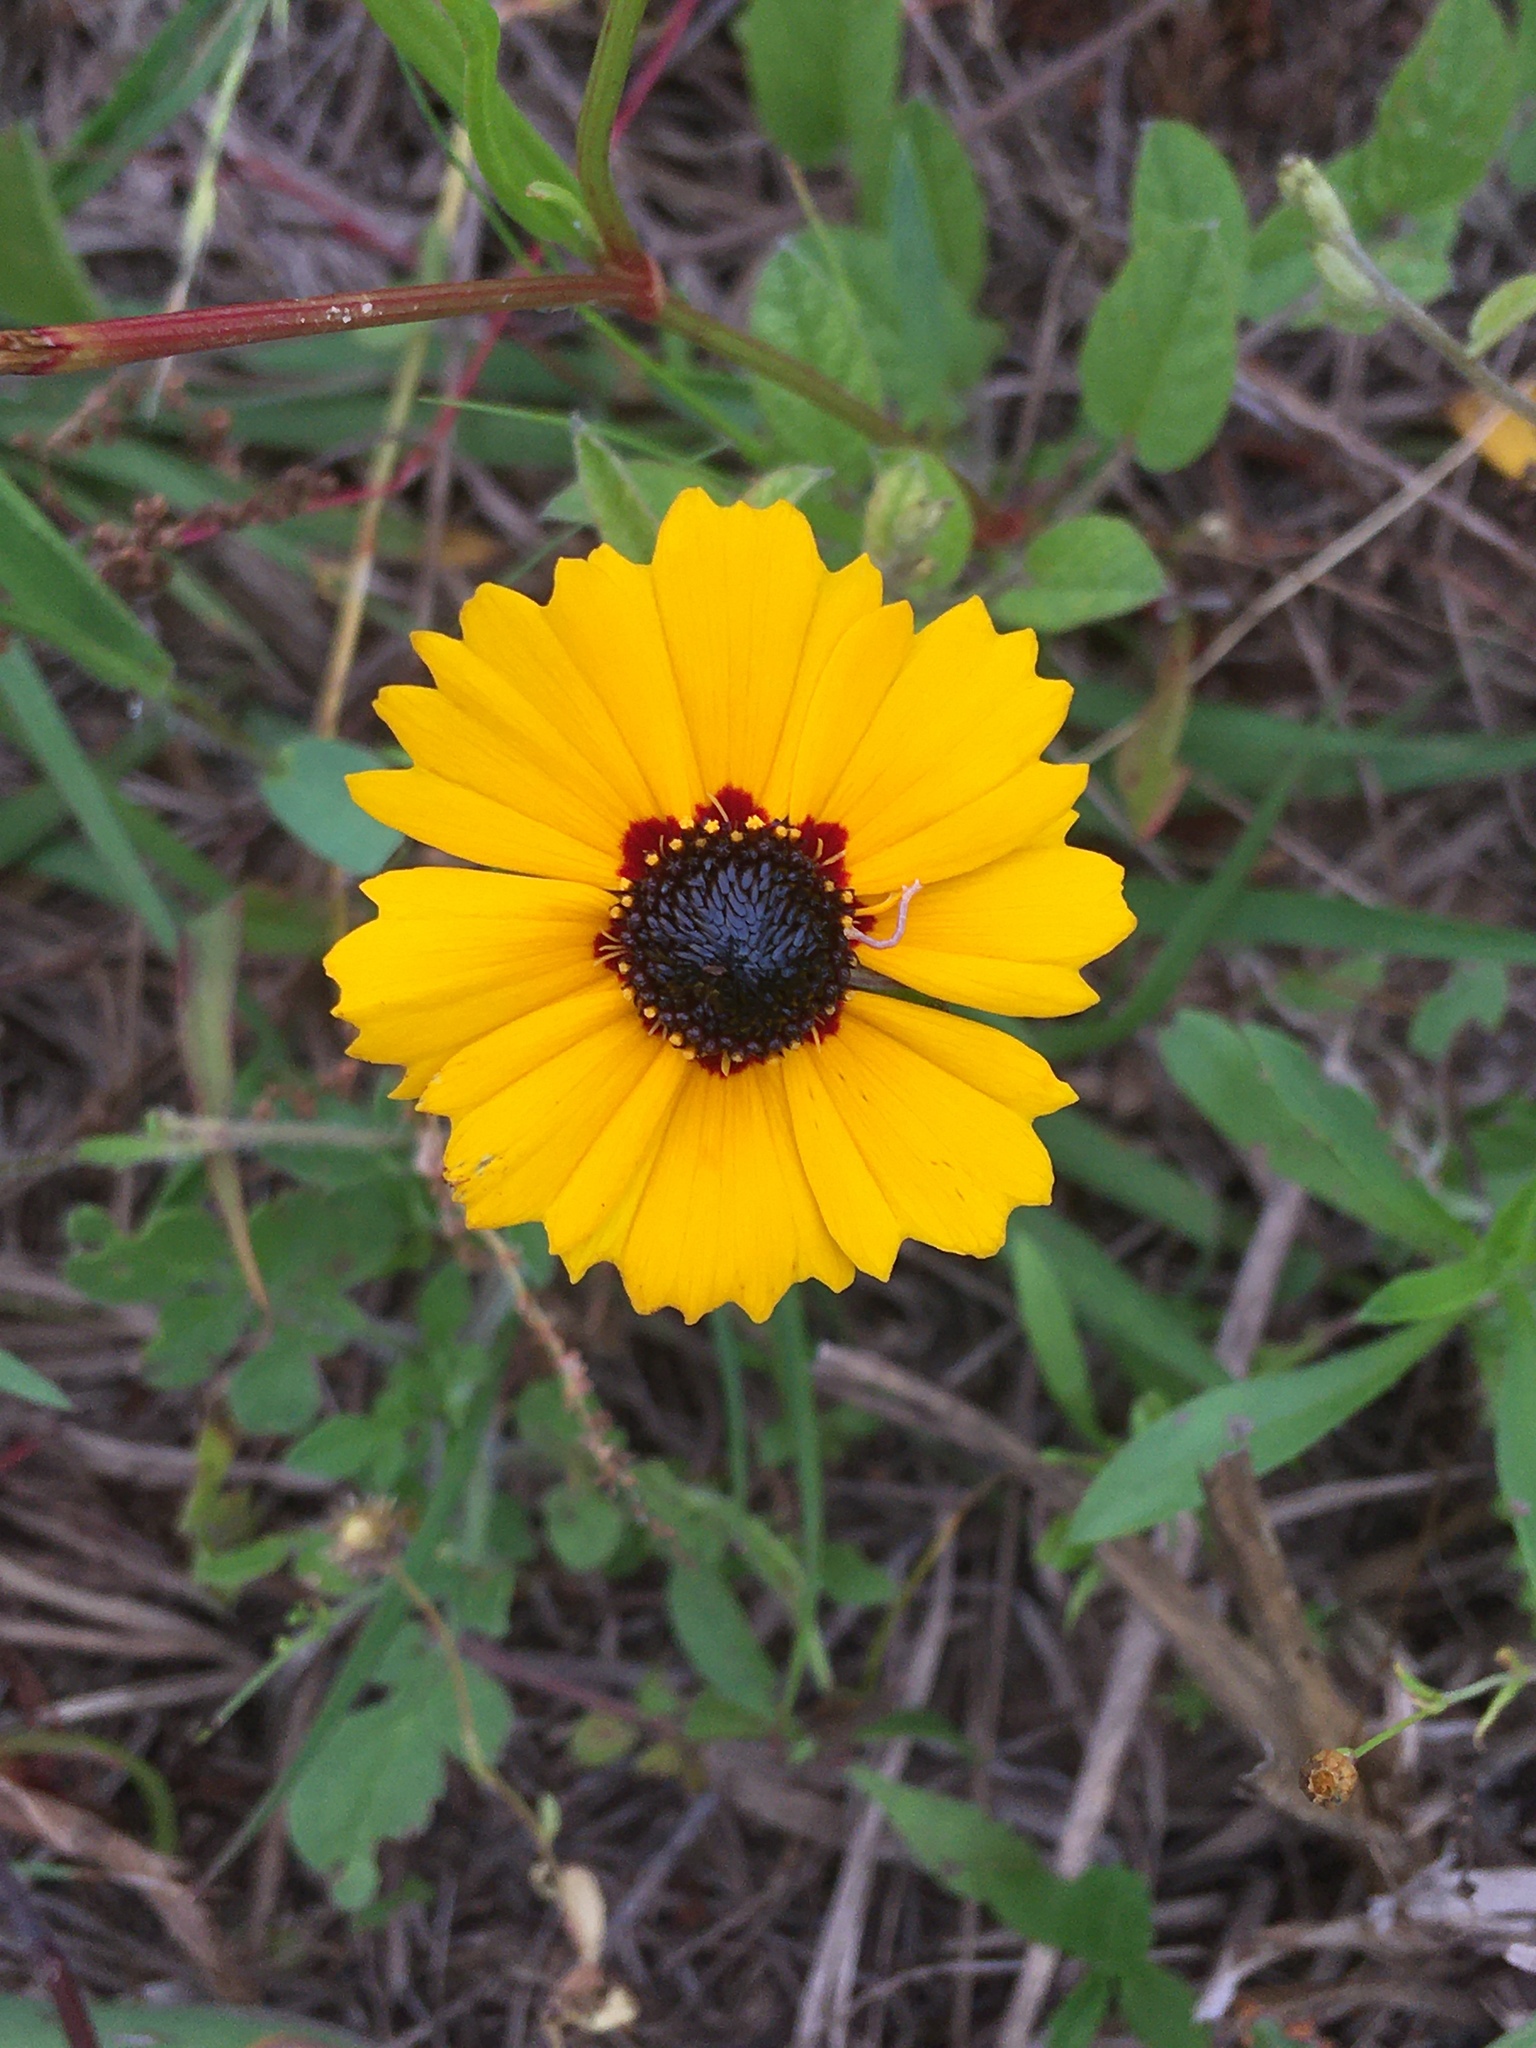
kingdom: Plantae
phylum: Tracheophyta
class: Magnoliopsida
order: Asterales
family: Asteraceae
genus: Coreopsis
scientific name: Coreopsis basalis
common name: Golden-mane coreopsis
